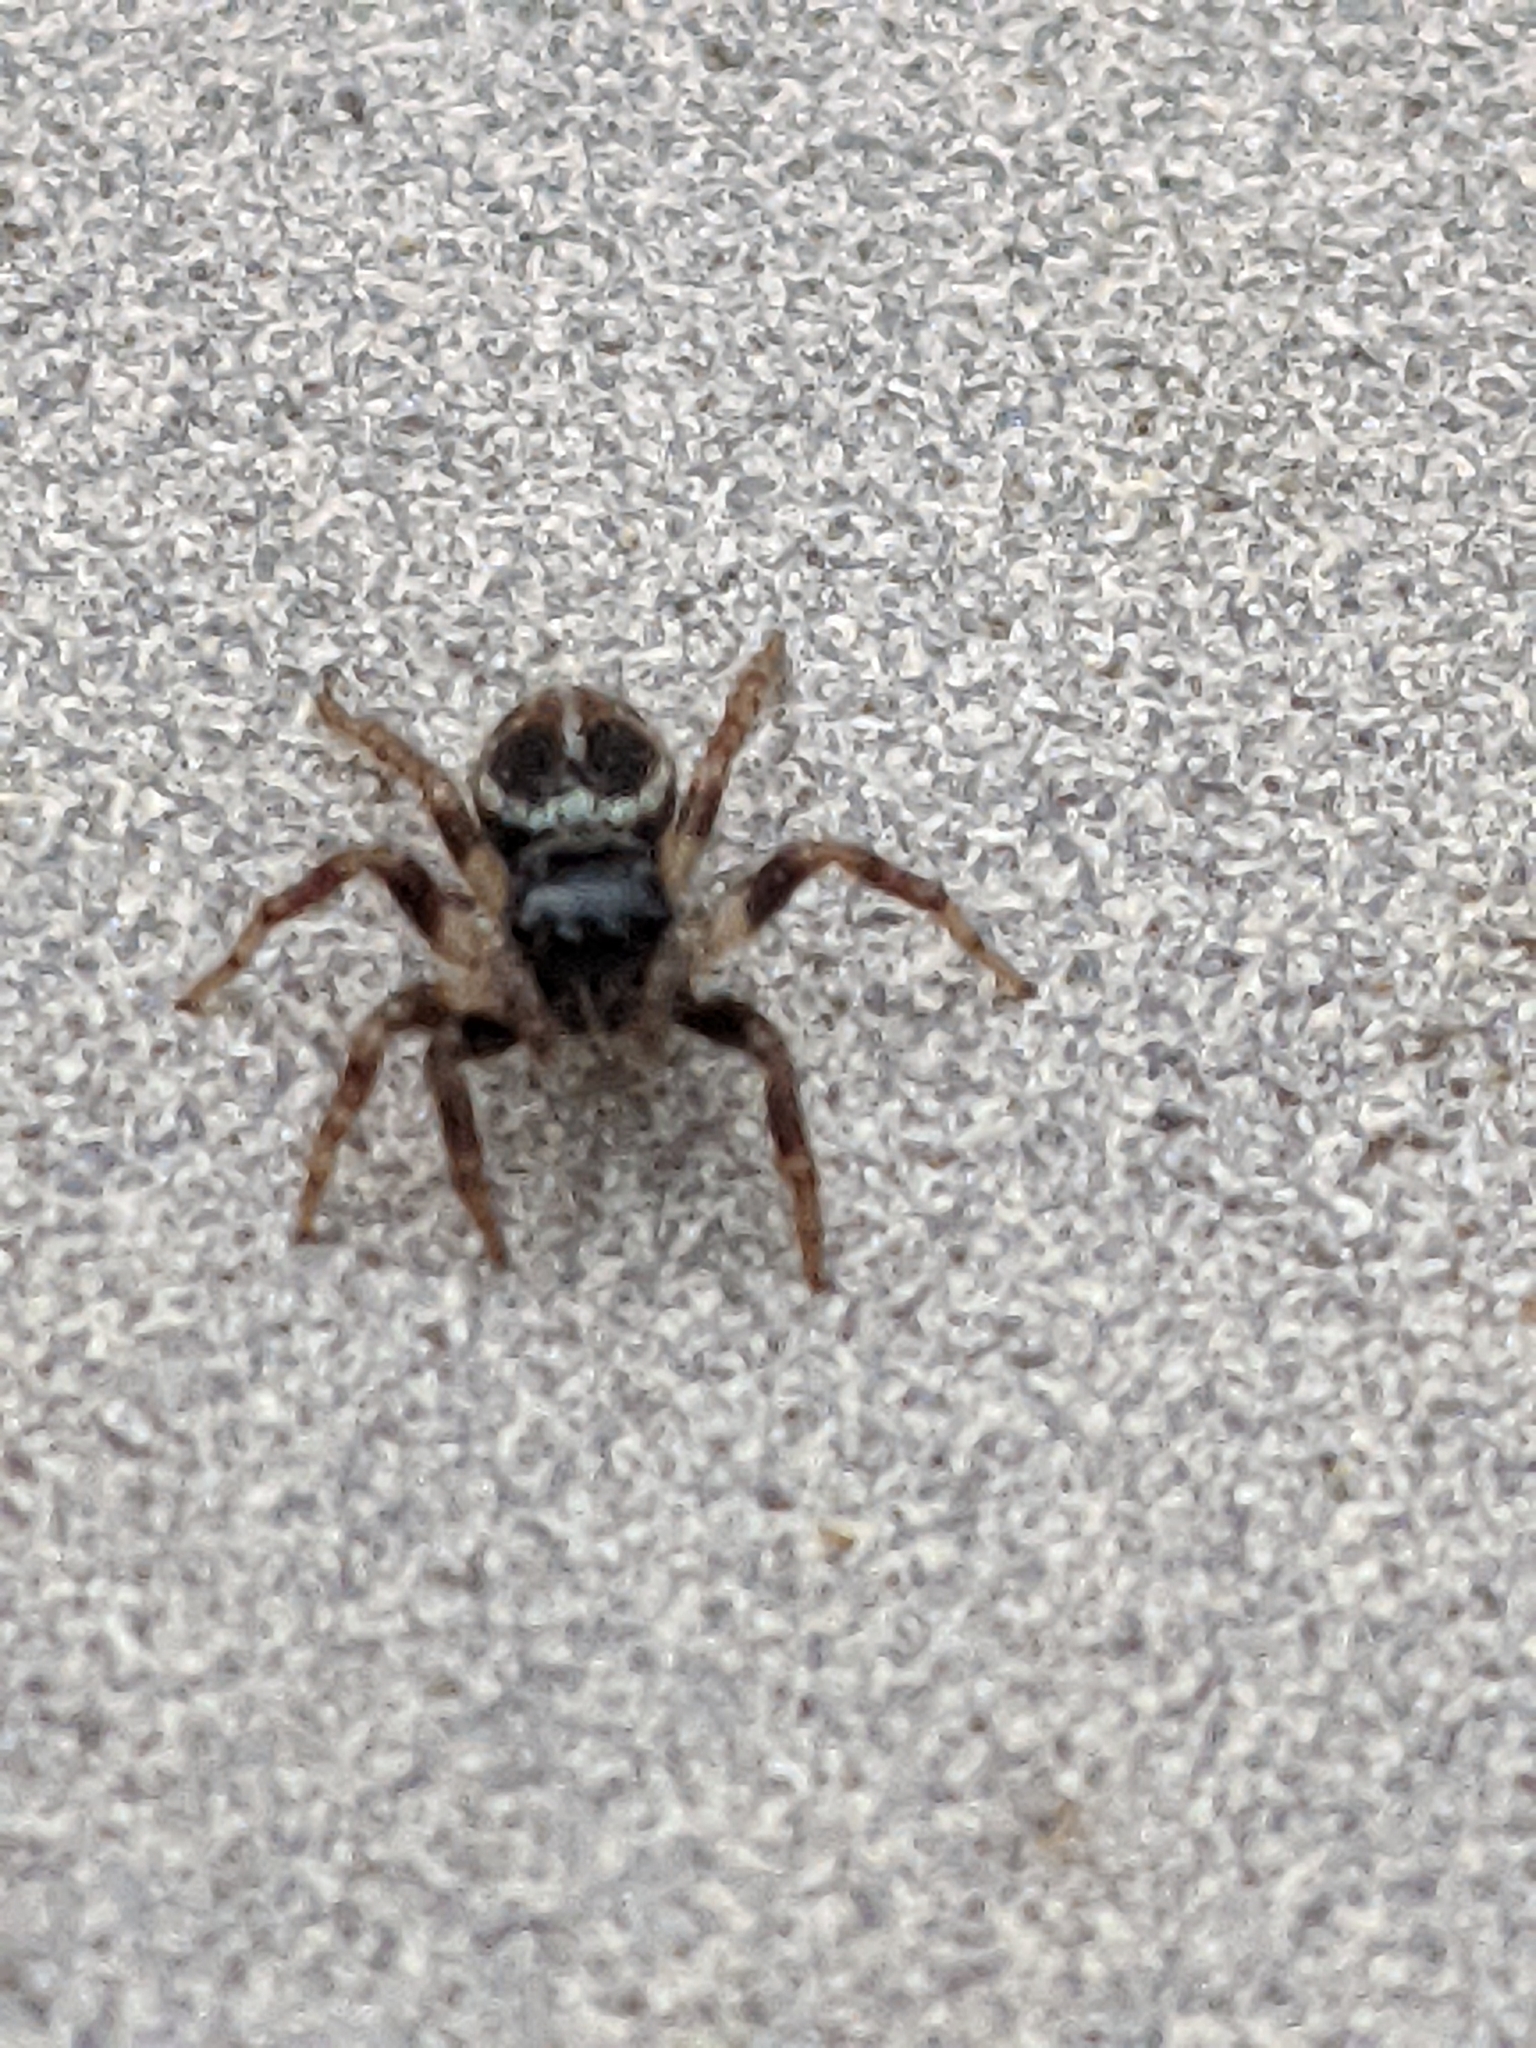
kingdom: Animalia
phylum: Arthropoda
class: Arachnida
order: Araneae
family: Salticidae
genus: Anasaitis
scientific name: Anasaitis canosa
